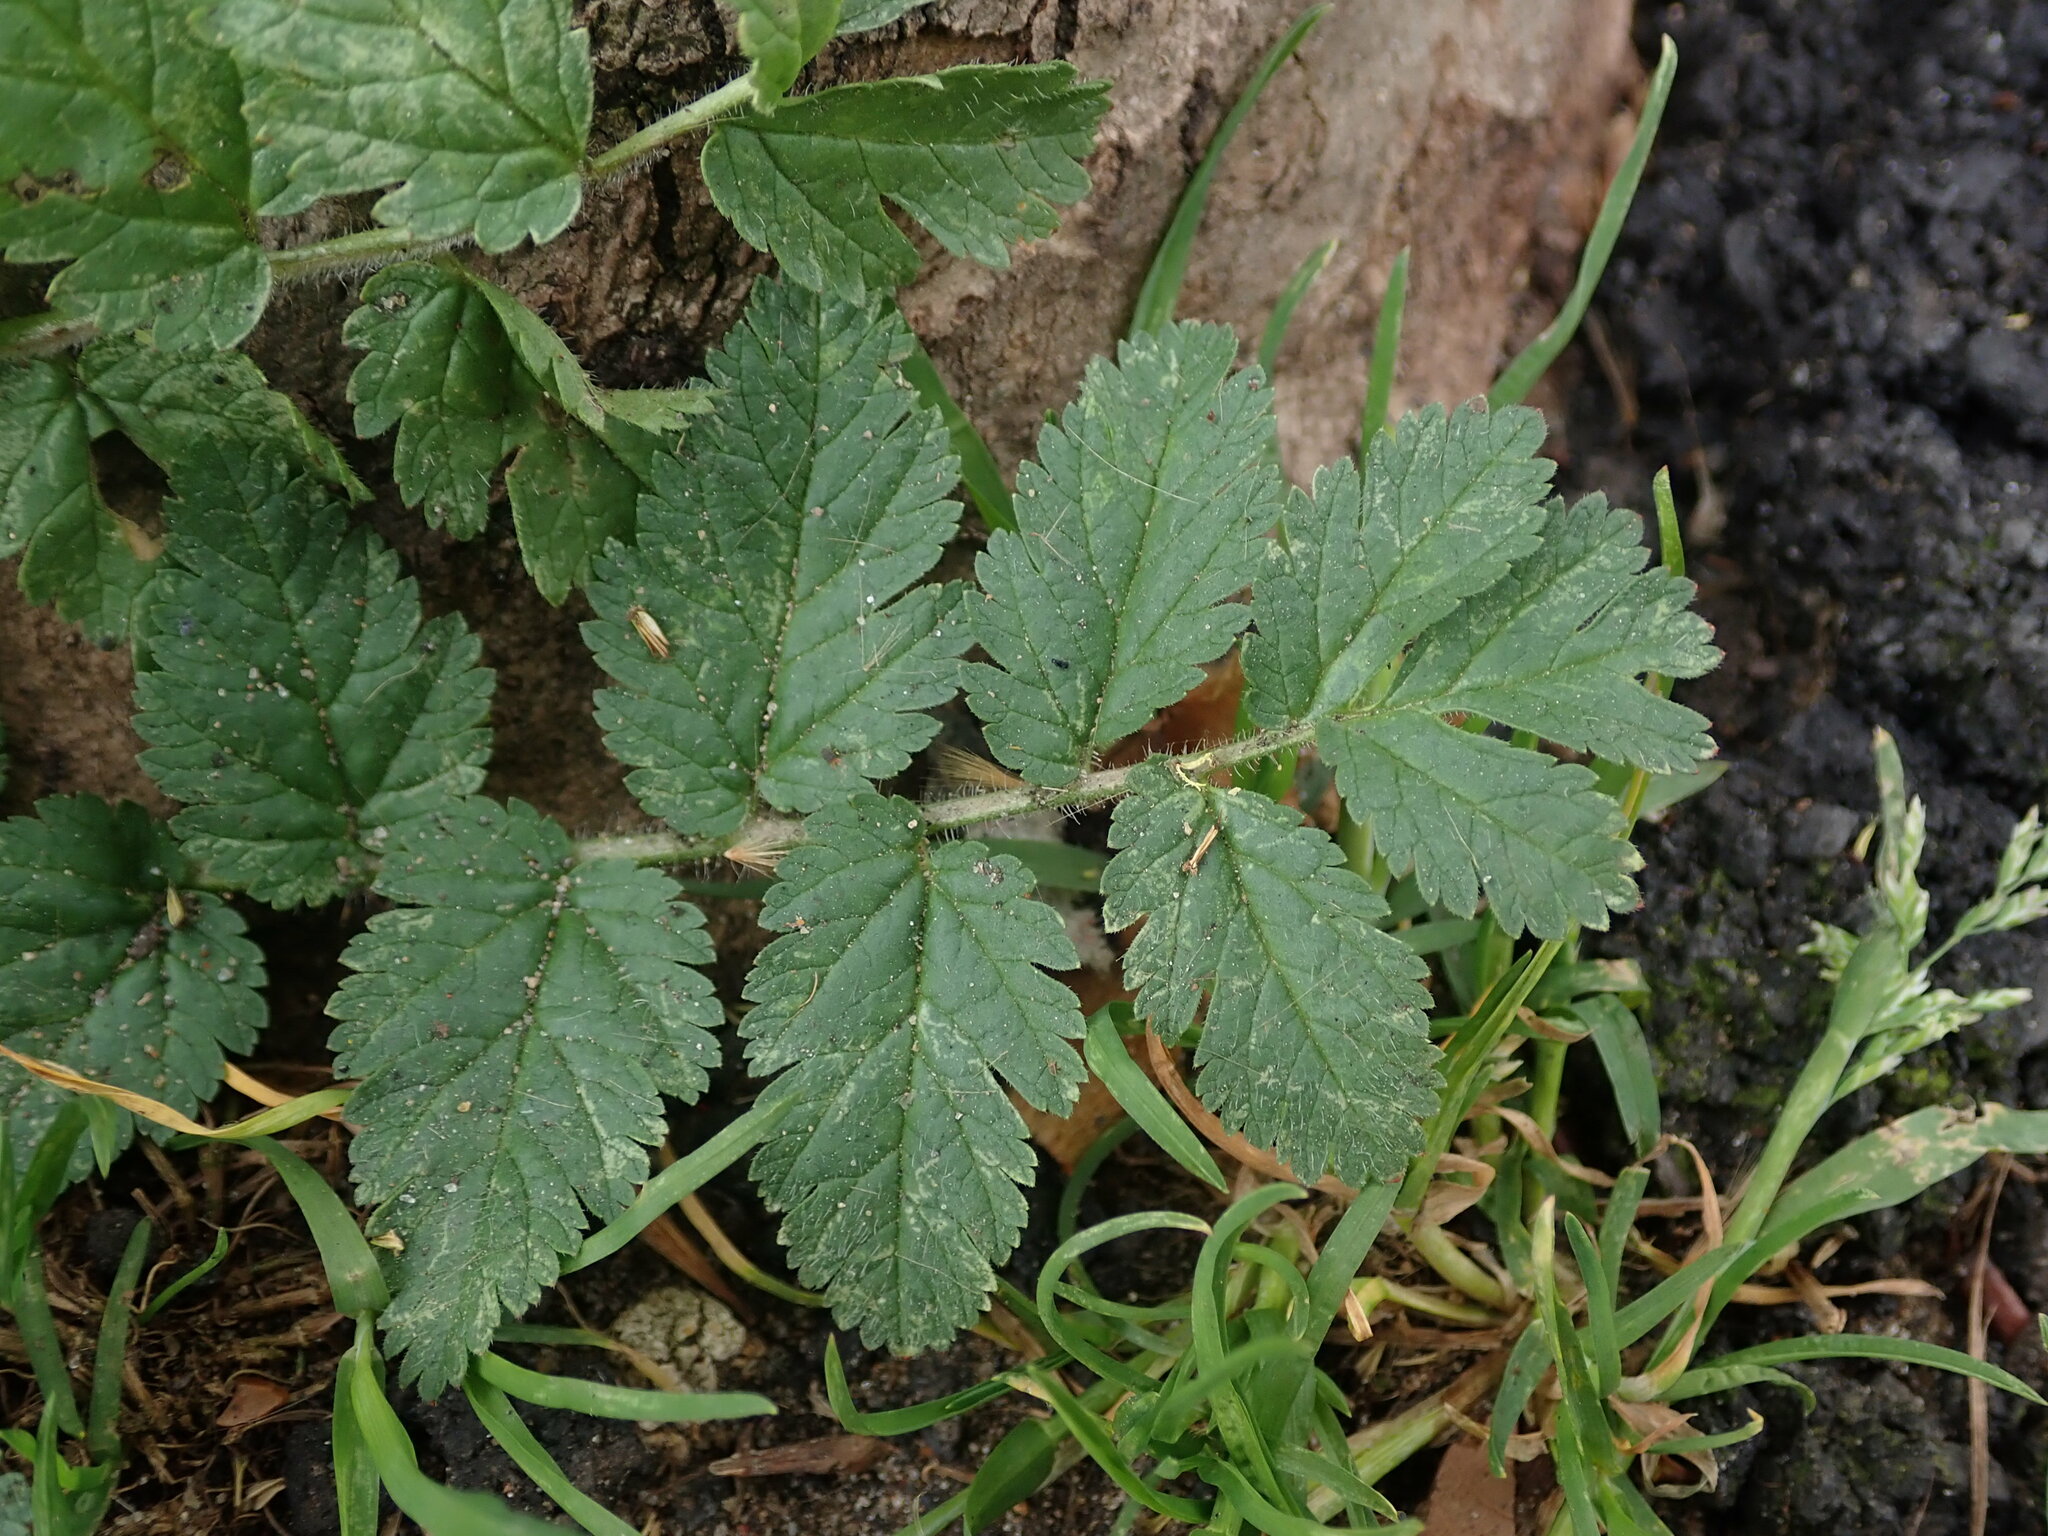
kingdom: Plantae
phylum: Tracheophyta
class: Magnoliopsida
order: Geraniales
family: Geraniaceae
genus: Erodium
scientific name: Erodium moschatum
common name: Musk stork's-bill
